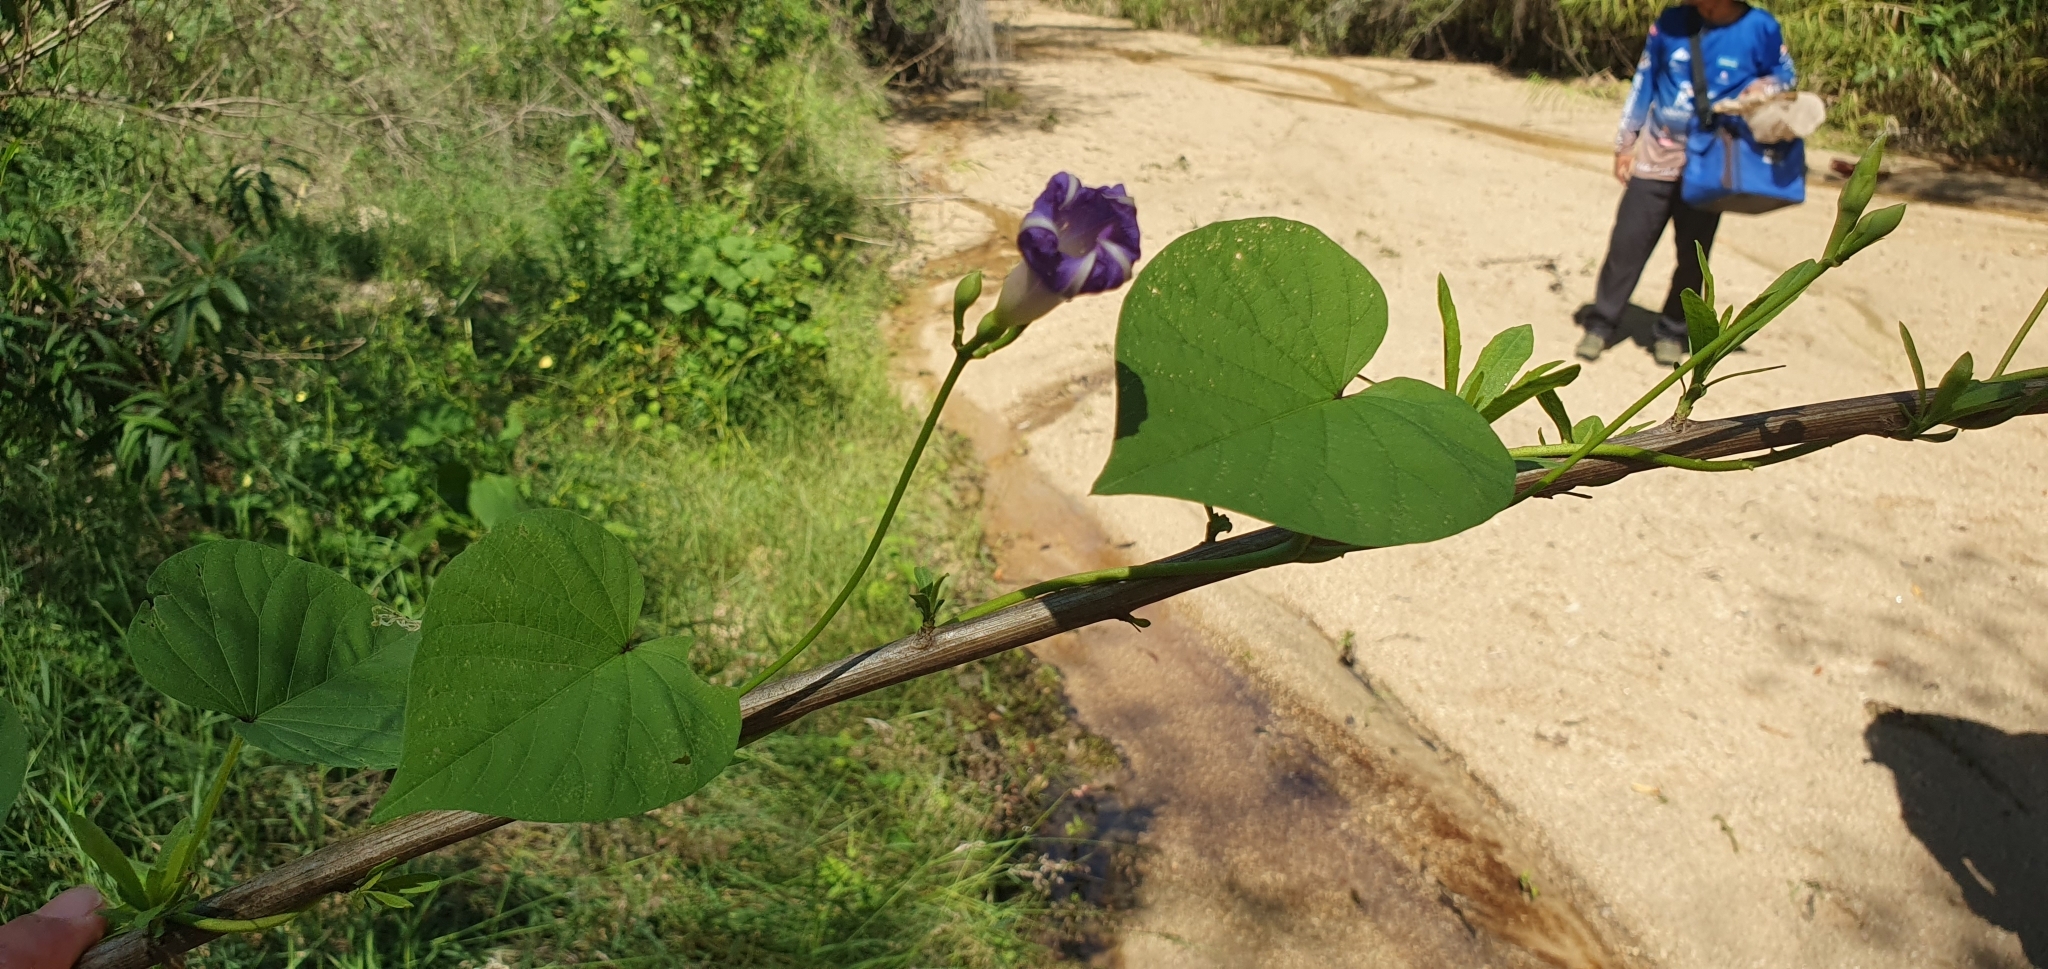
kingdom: Plantae
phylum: Tracheophyta
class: Magnoliopsida
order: Solanales
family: Convolvulaceae
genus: Ipomoea
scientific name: Ipomoea parasitica
